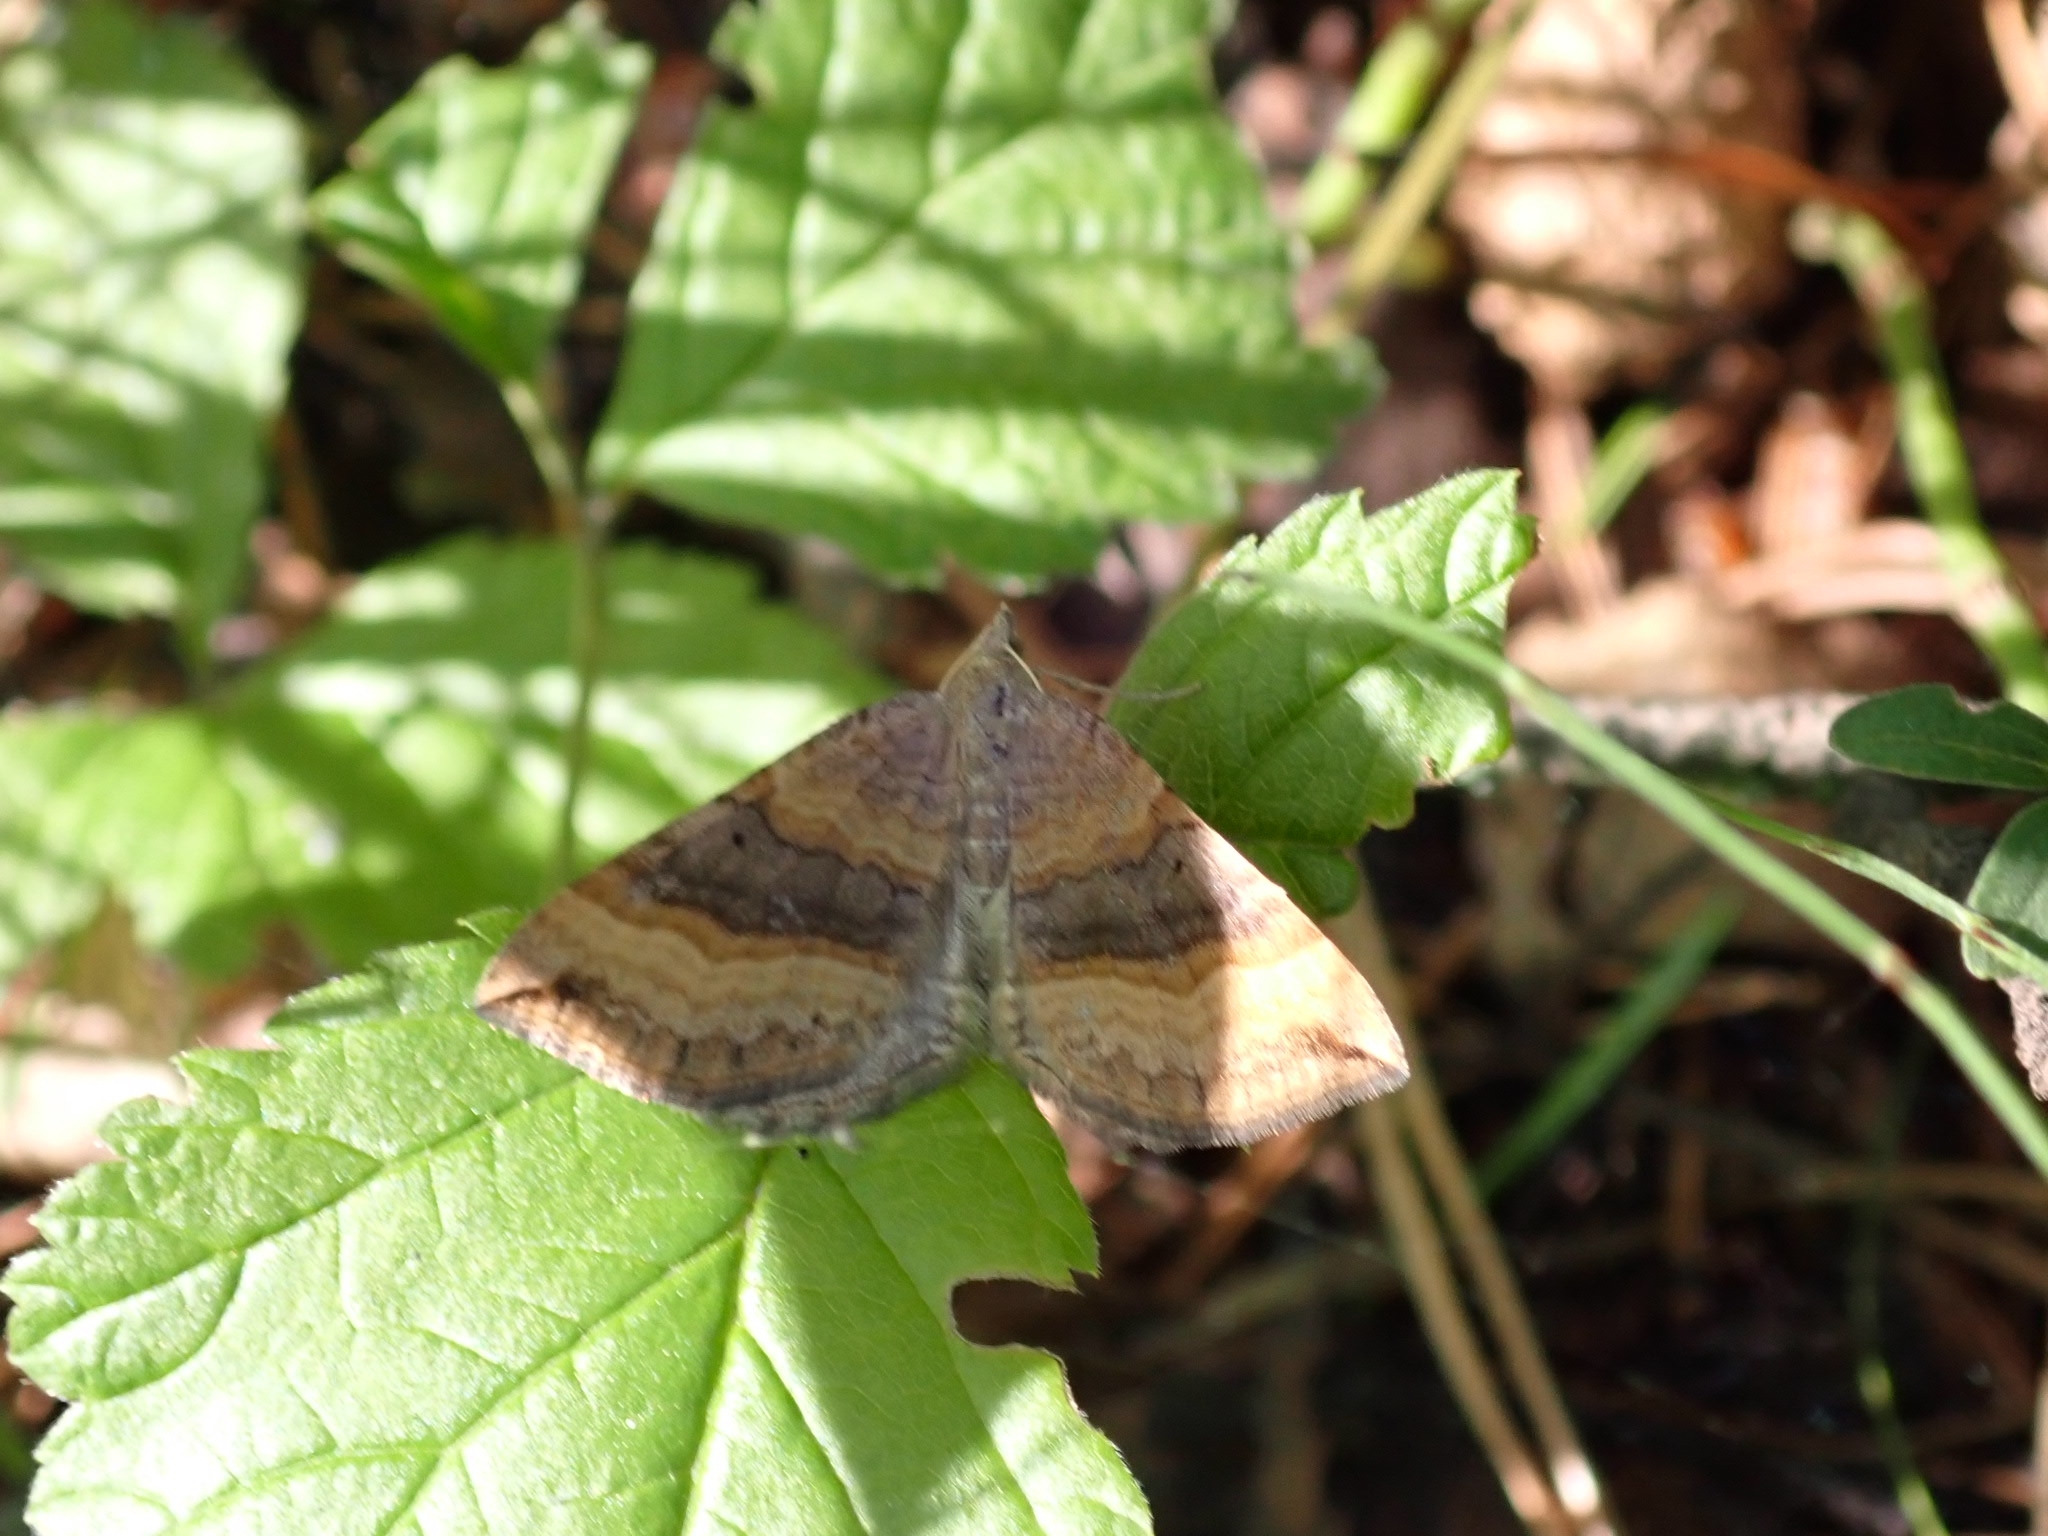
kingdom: Animalia
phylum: Arthropoda
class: Insecta
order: Lepidoptera
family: Geometridae
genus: Scotopteryx
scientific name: Scotopteryx chenopodiata
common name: Shaded broad-bar
